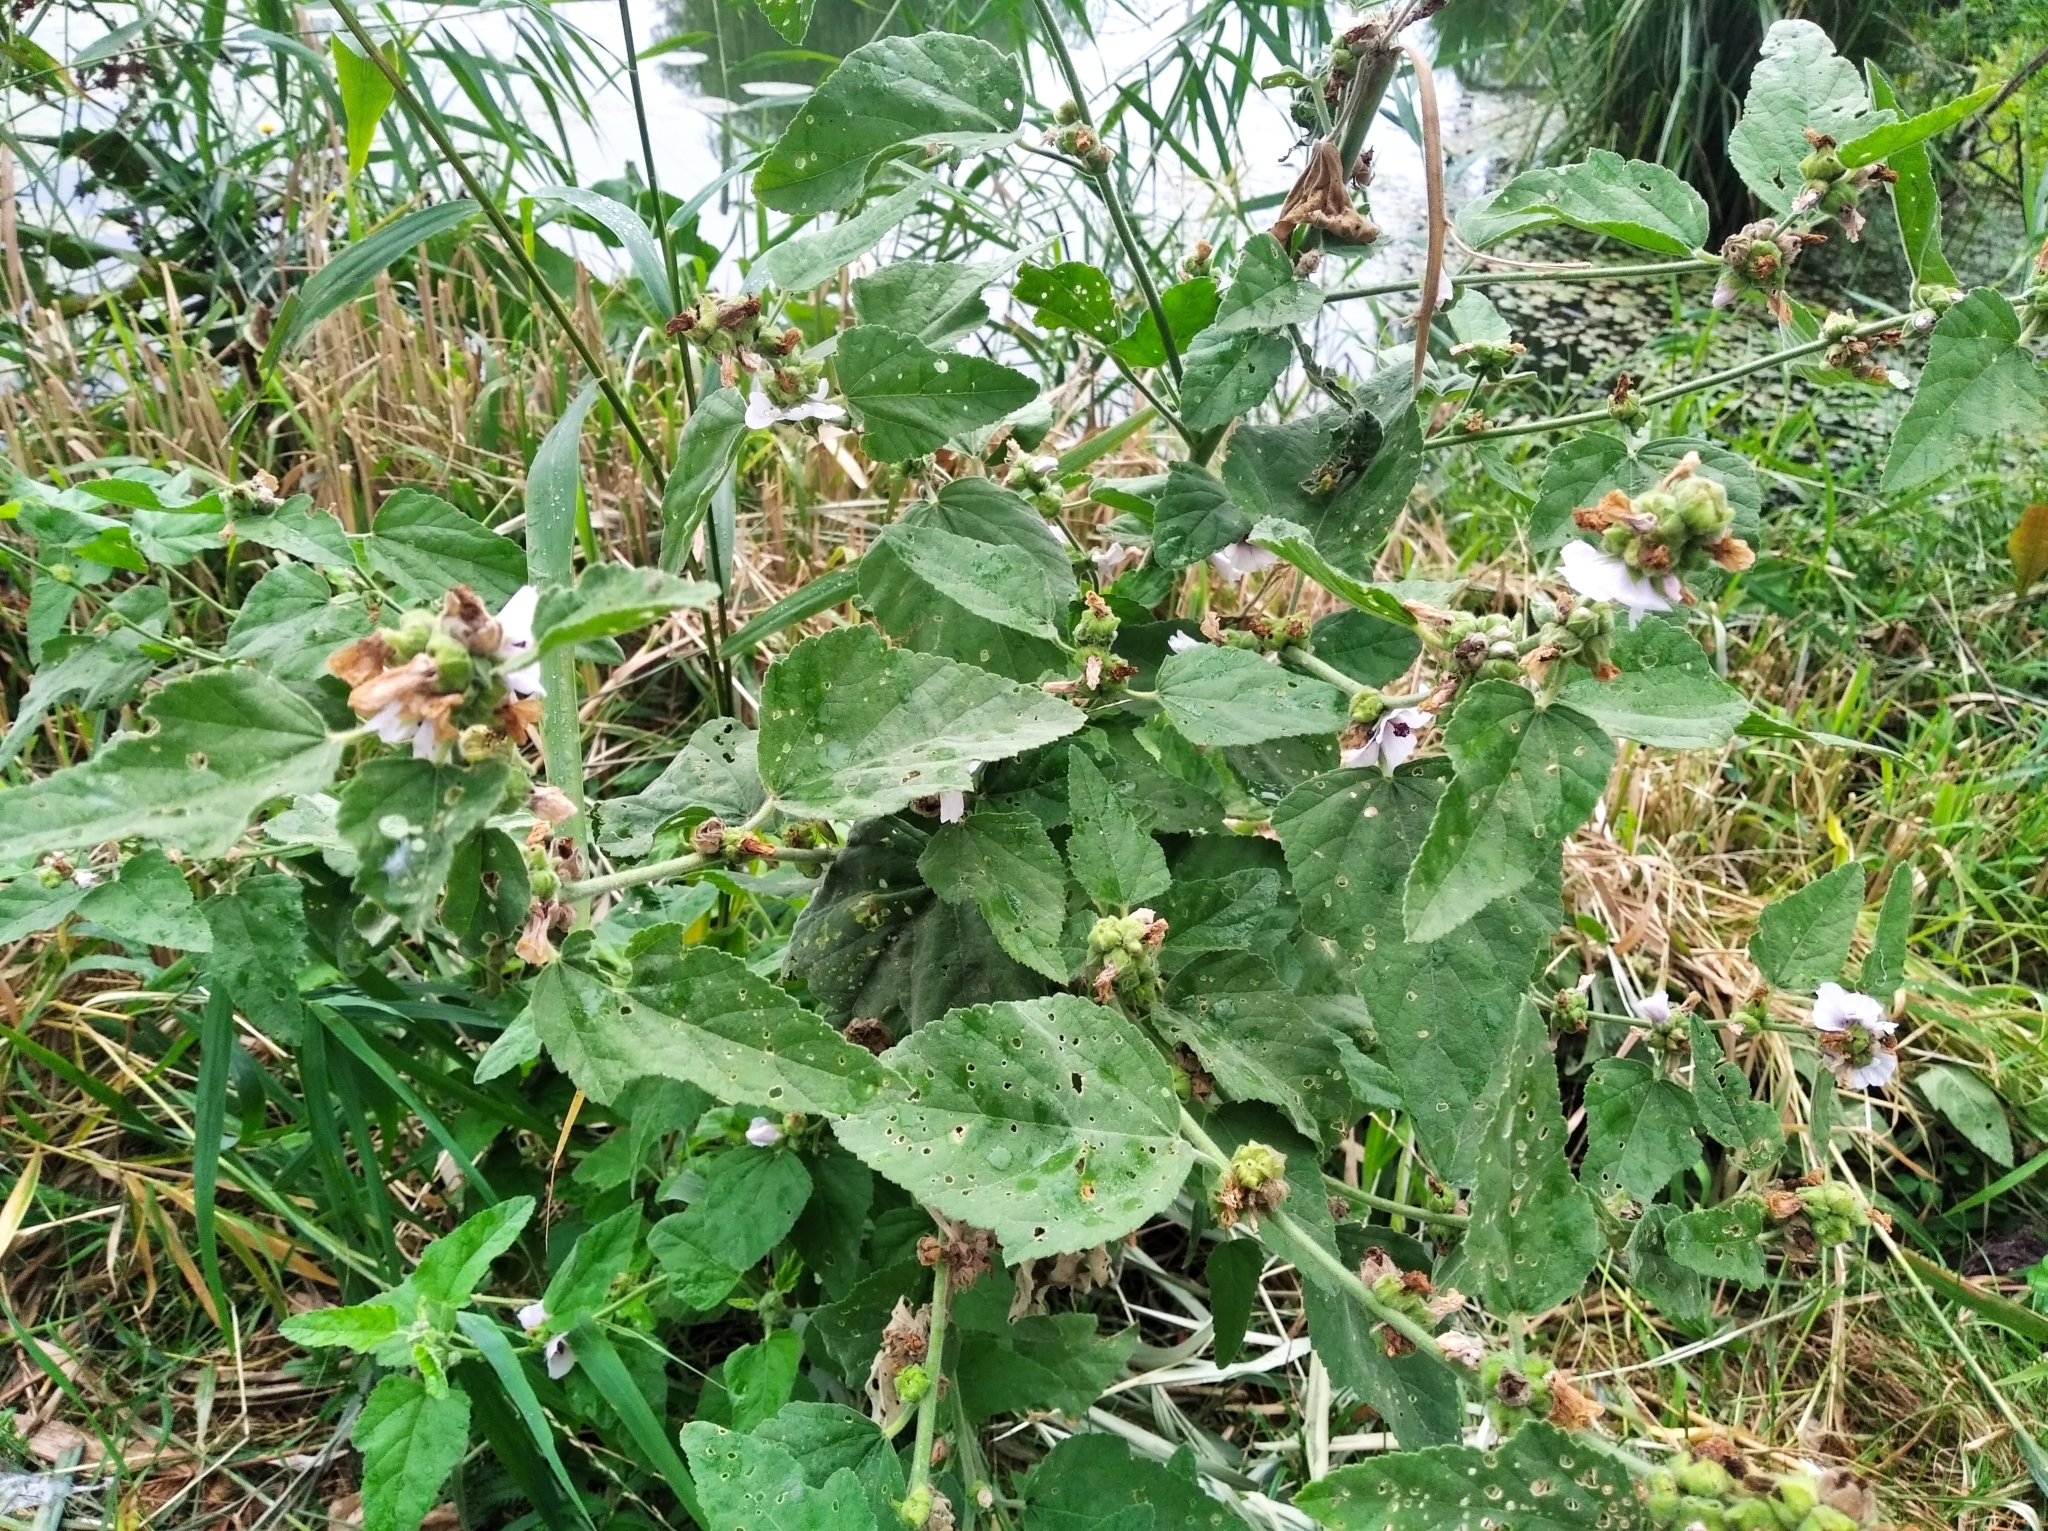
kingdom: Plantae
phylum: Tracheophyta
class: Magnoliopsida
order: Malvales
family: Malvaceae
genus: Althaea
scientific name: Althaea officinalis
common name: Marsh-mallow
